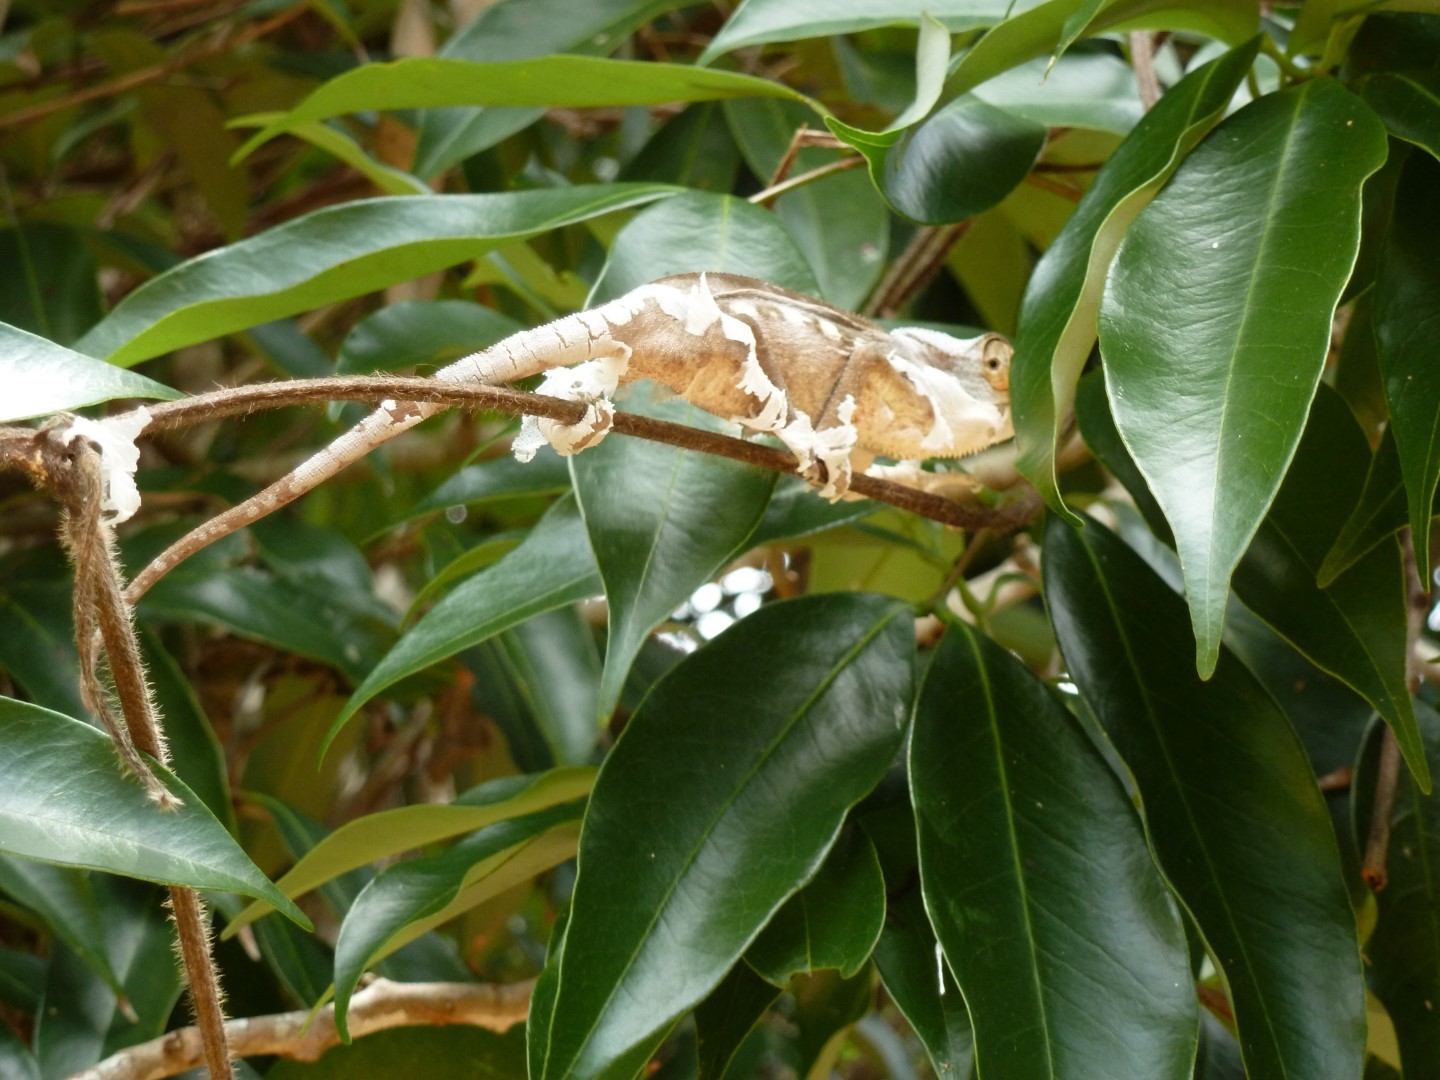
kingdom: Animalia
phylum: Chordata
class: Squamata
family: Chamaeleonidae
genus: Furcifer
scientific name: Furcifer pardalis
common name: Panther chameleon
